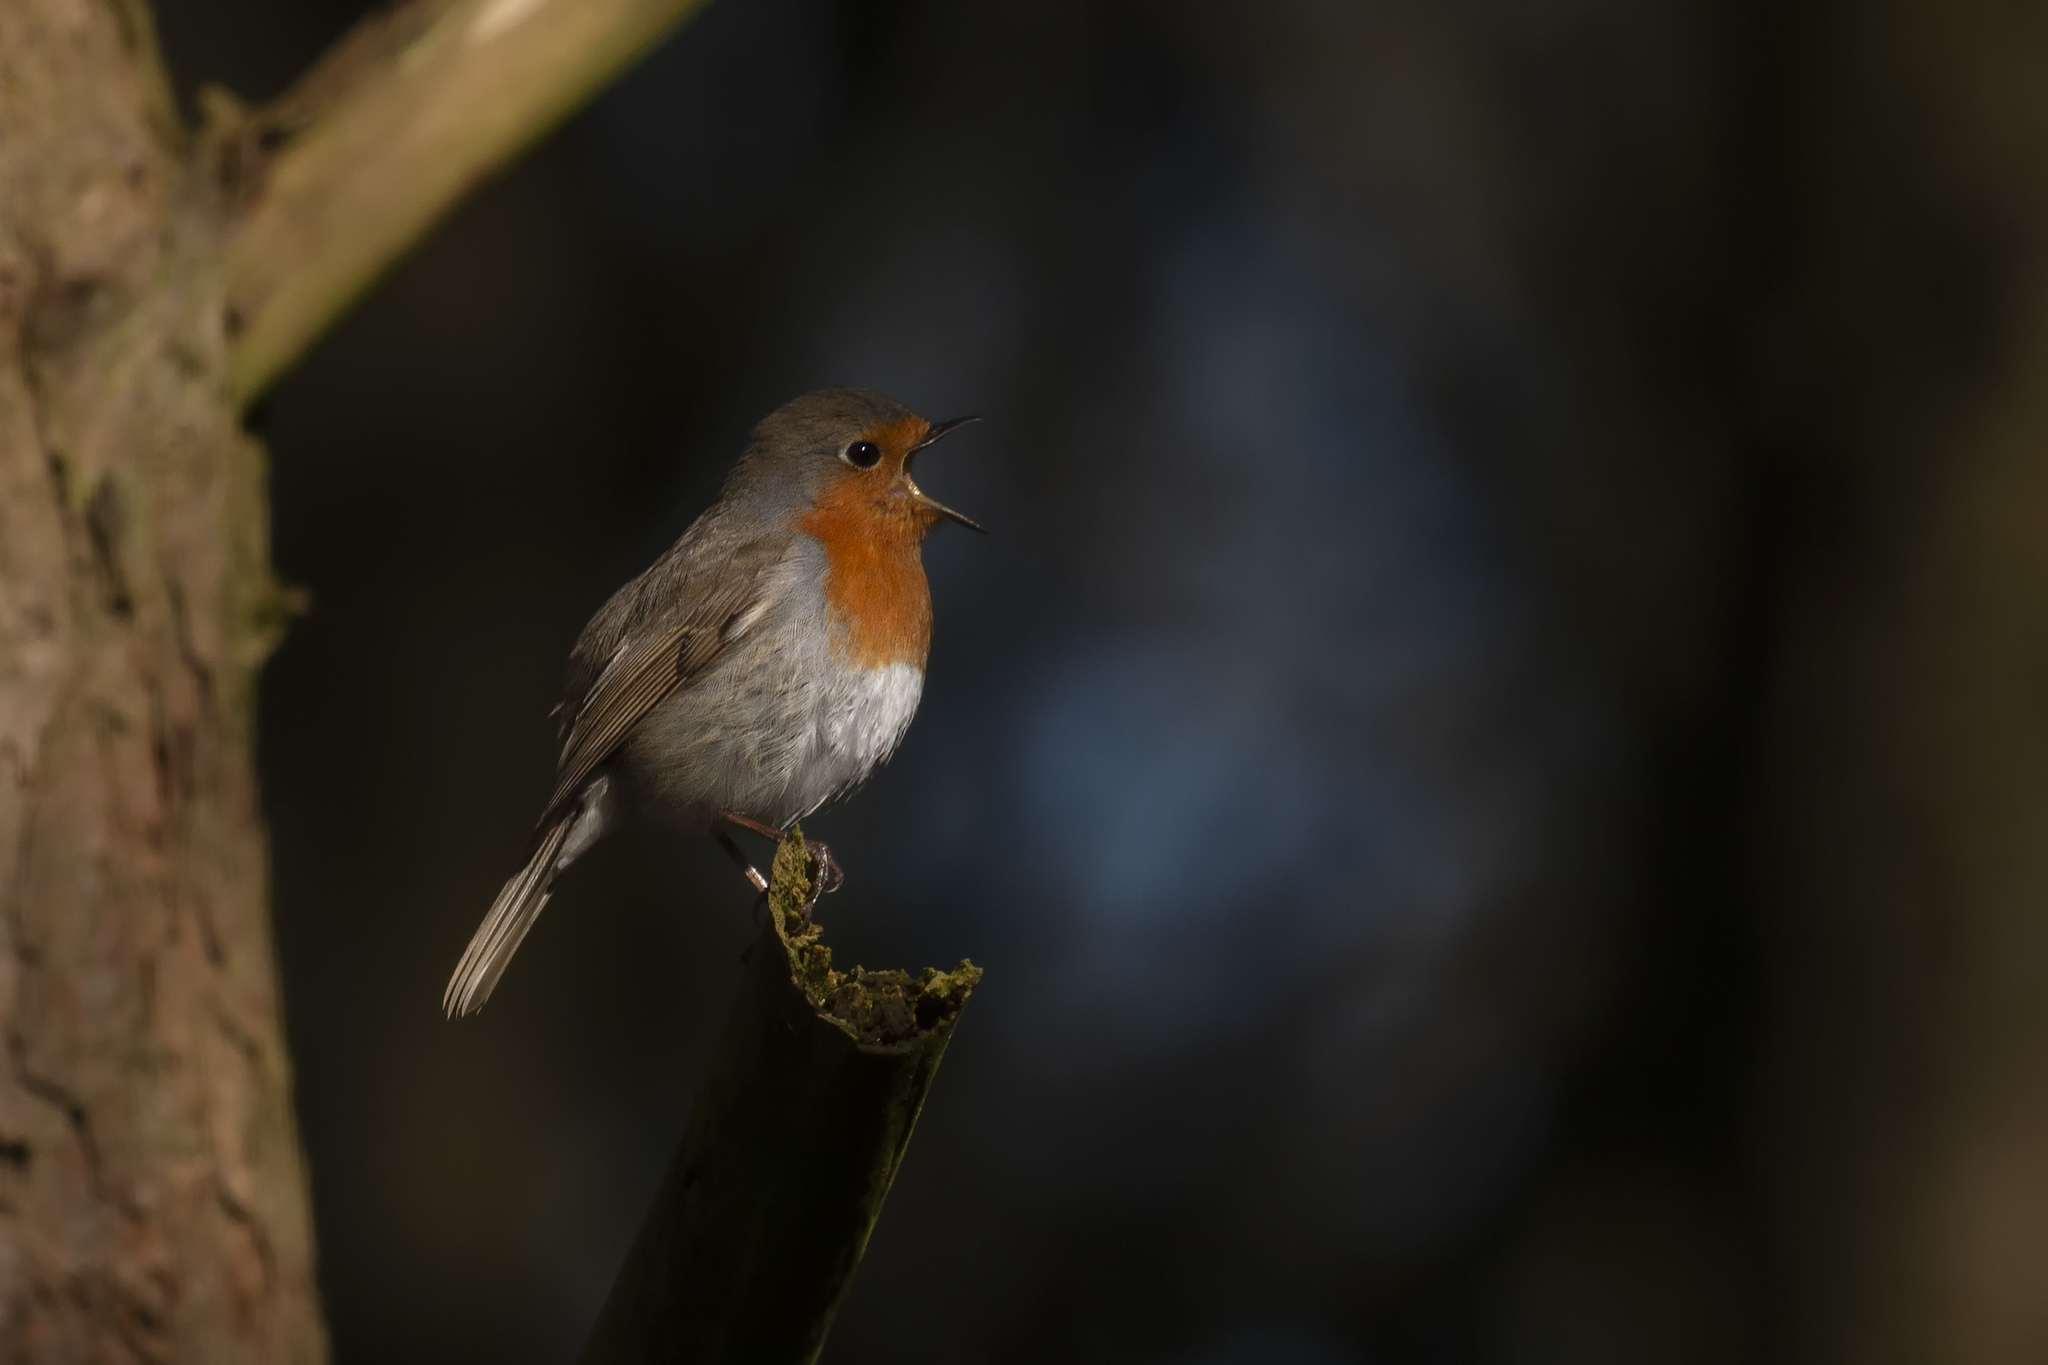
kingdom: Animalia
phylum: Chordata
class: Aves
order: Passeriformes
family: Muscicapidae
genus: Erithacus
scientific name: Erithacus rubecula
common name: European robin
